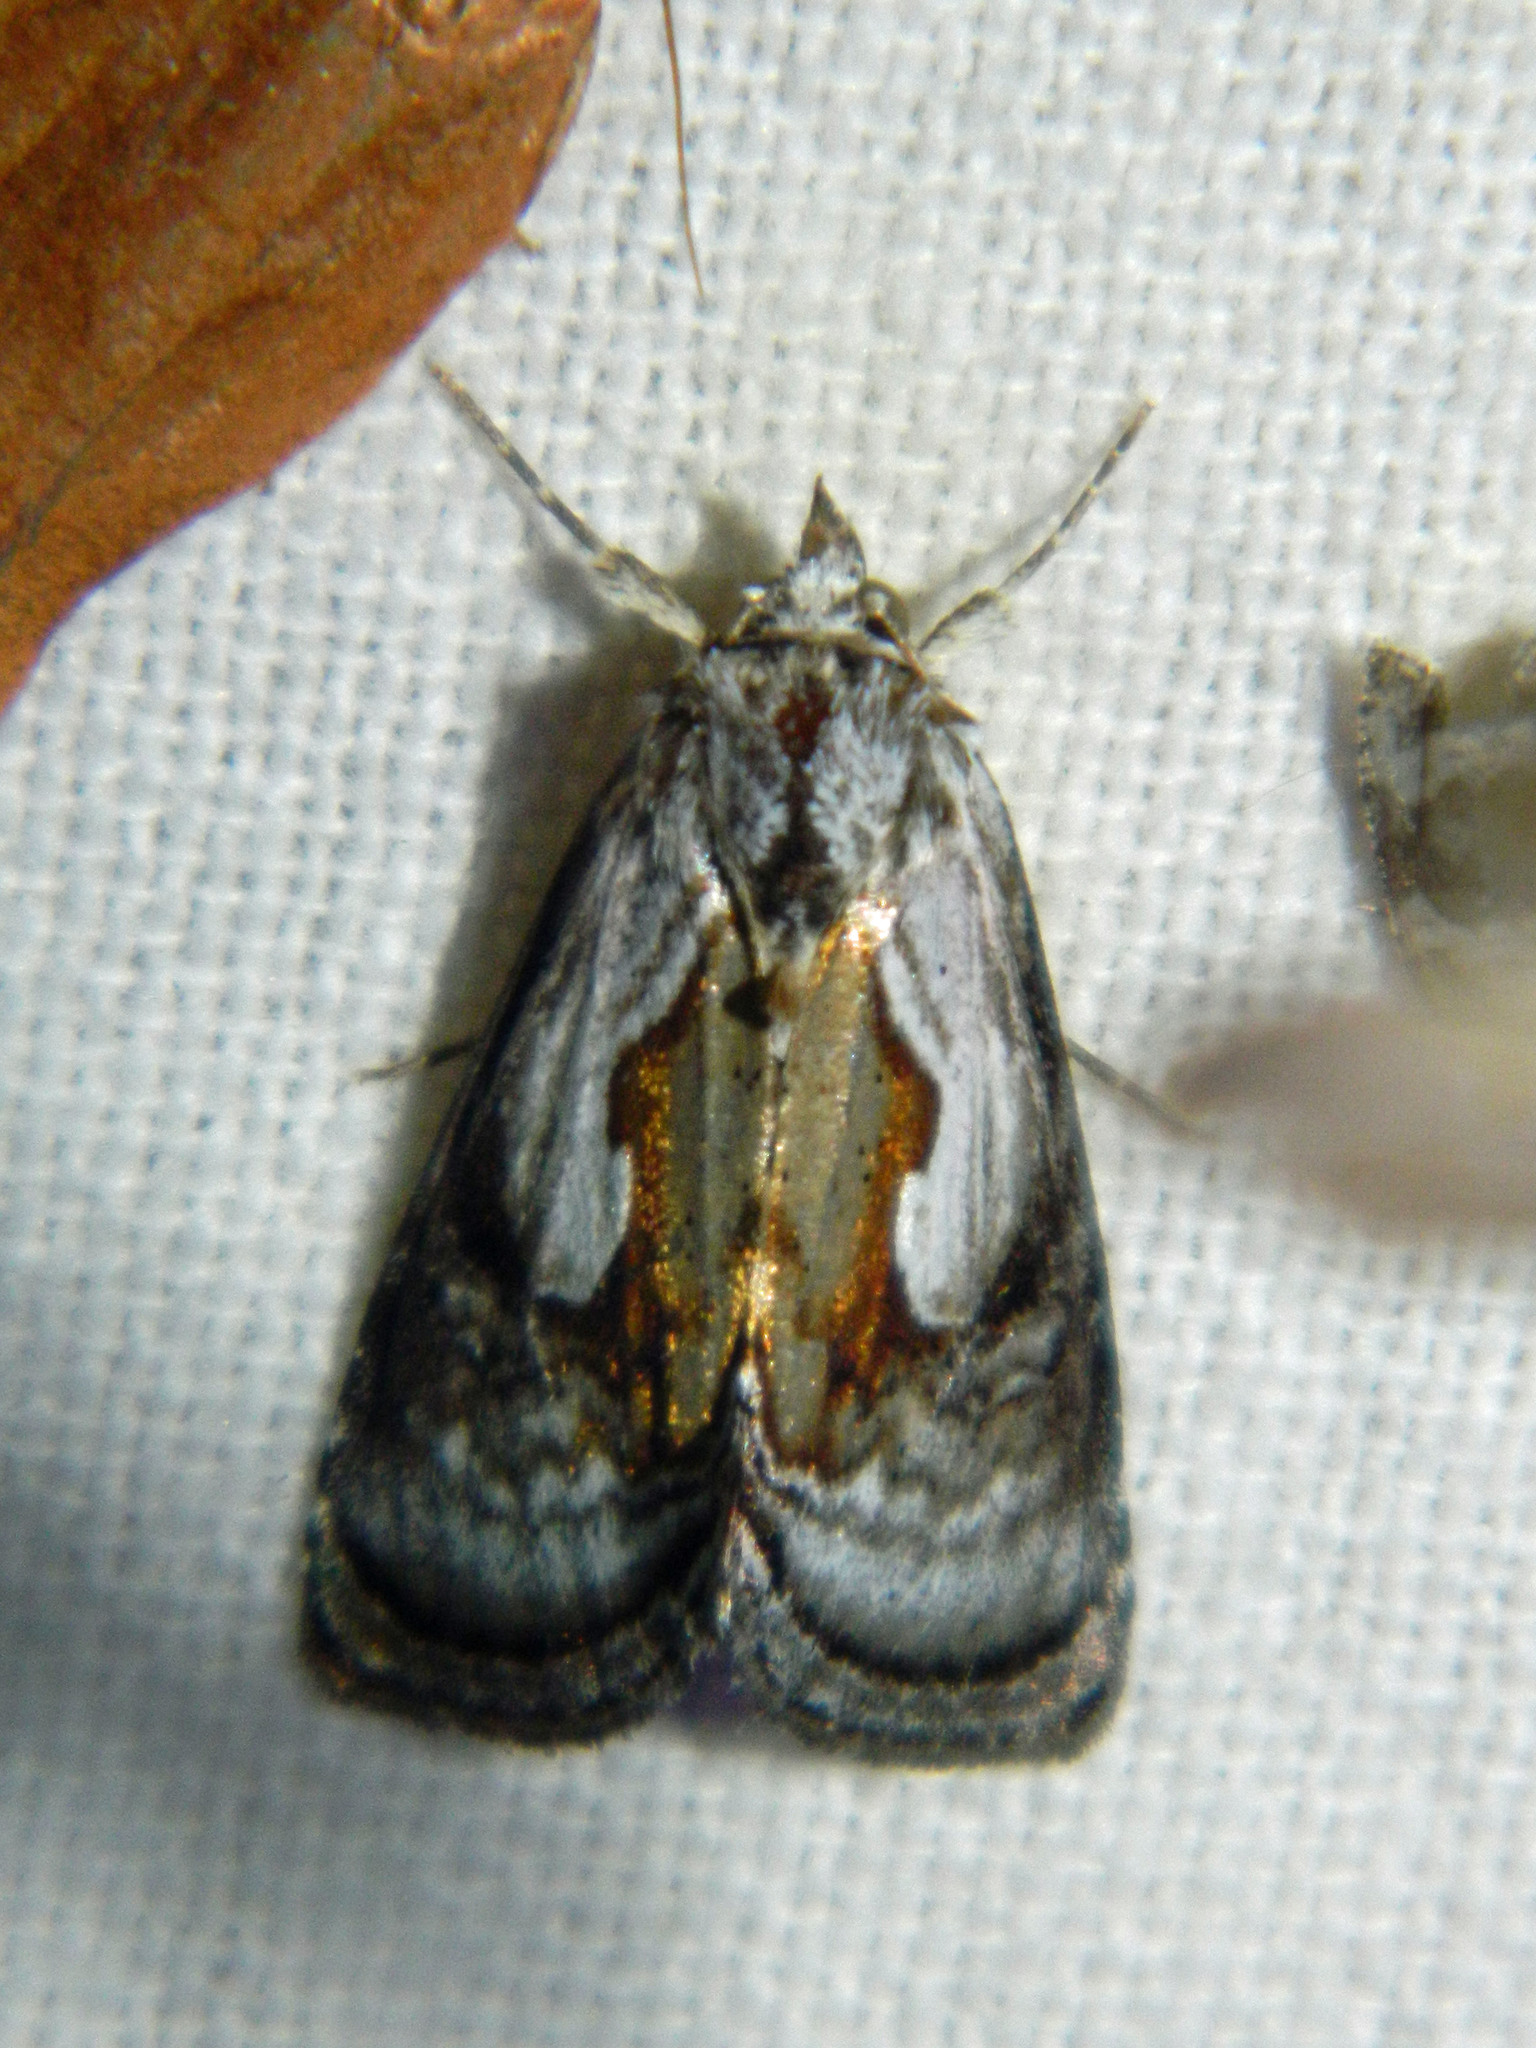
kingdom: Animalia
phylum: Arthropoda
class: Insecta
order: Lepidoptera
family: Noctuidae
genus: Chrysanympha
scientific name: Chrysanympha formosa
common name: Formosa looper moth
